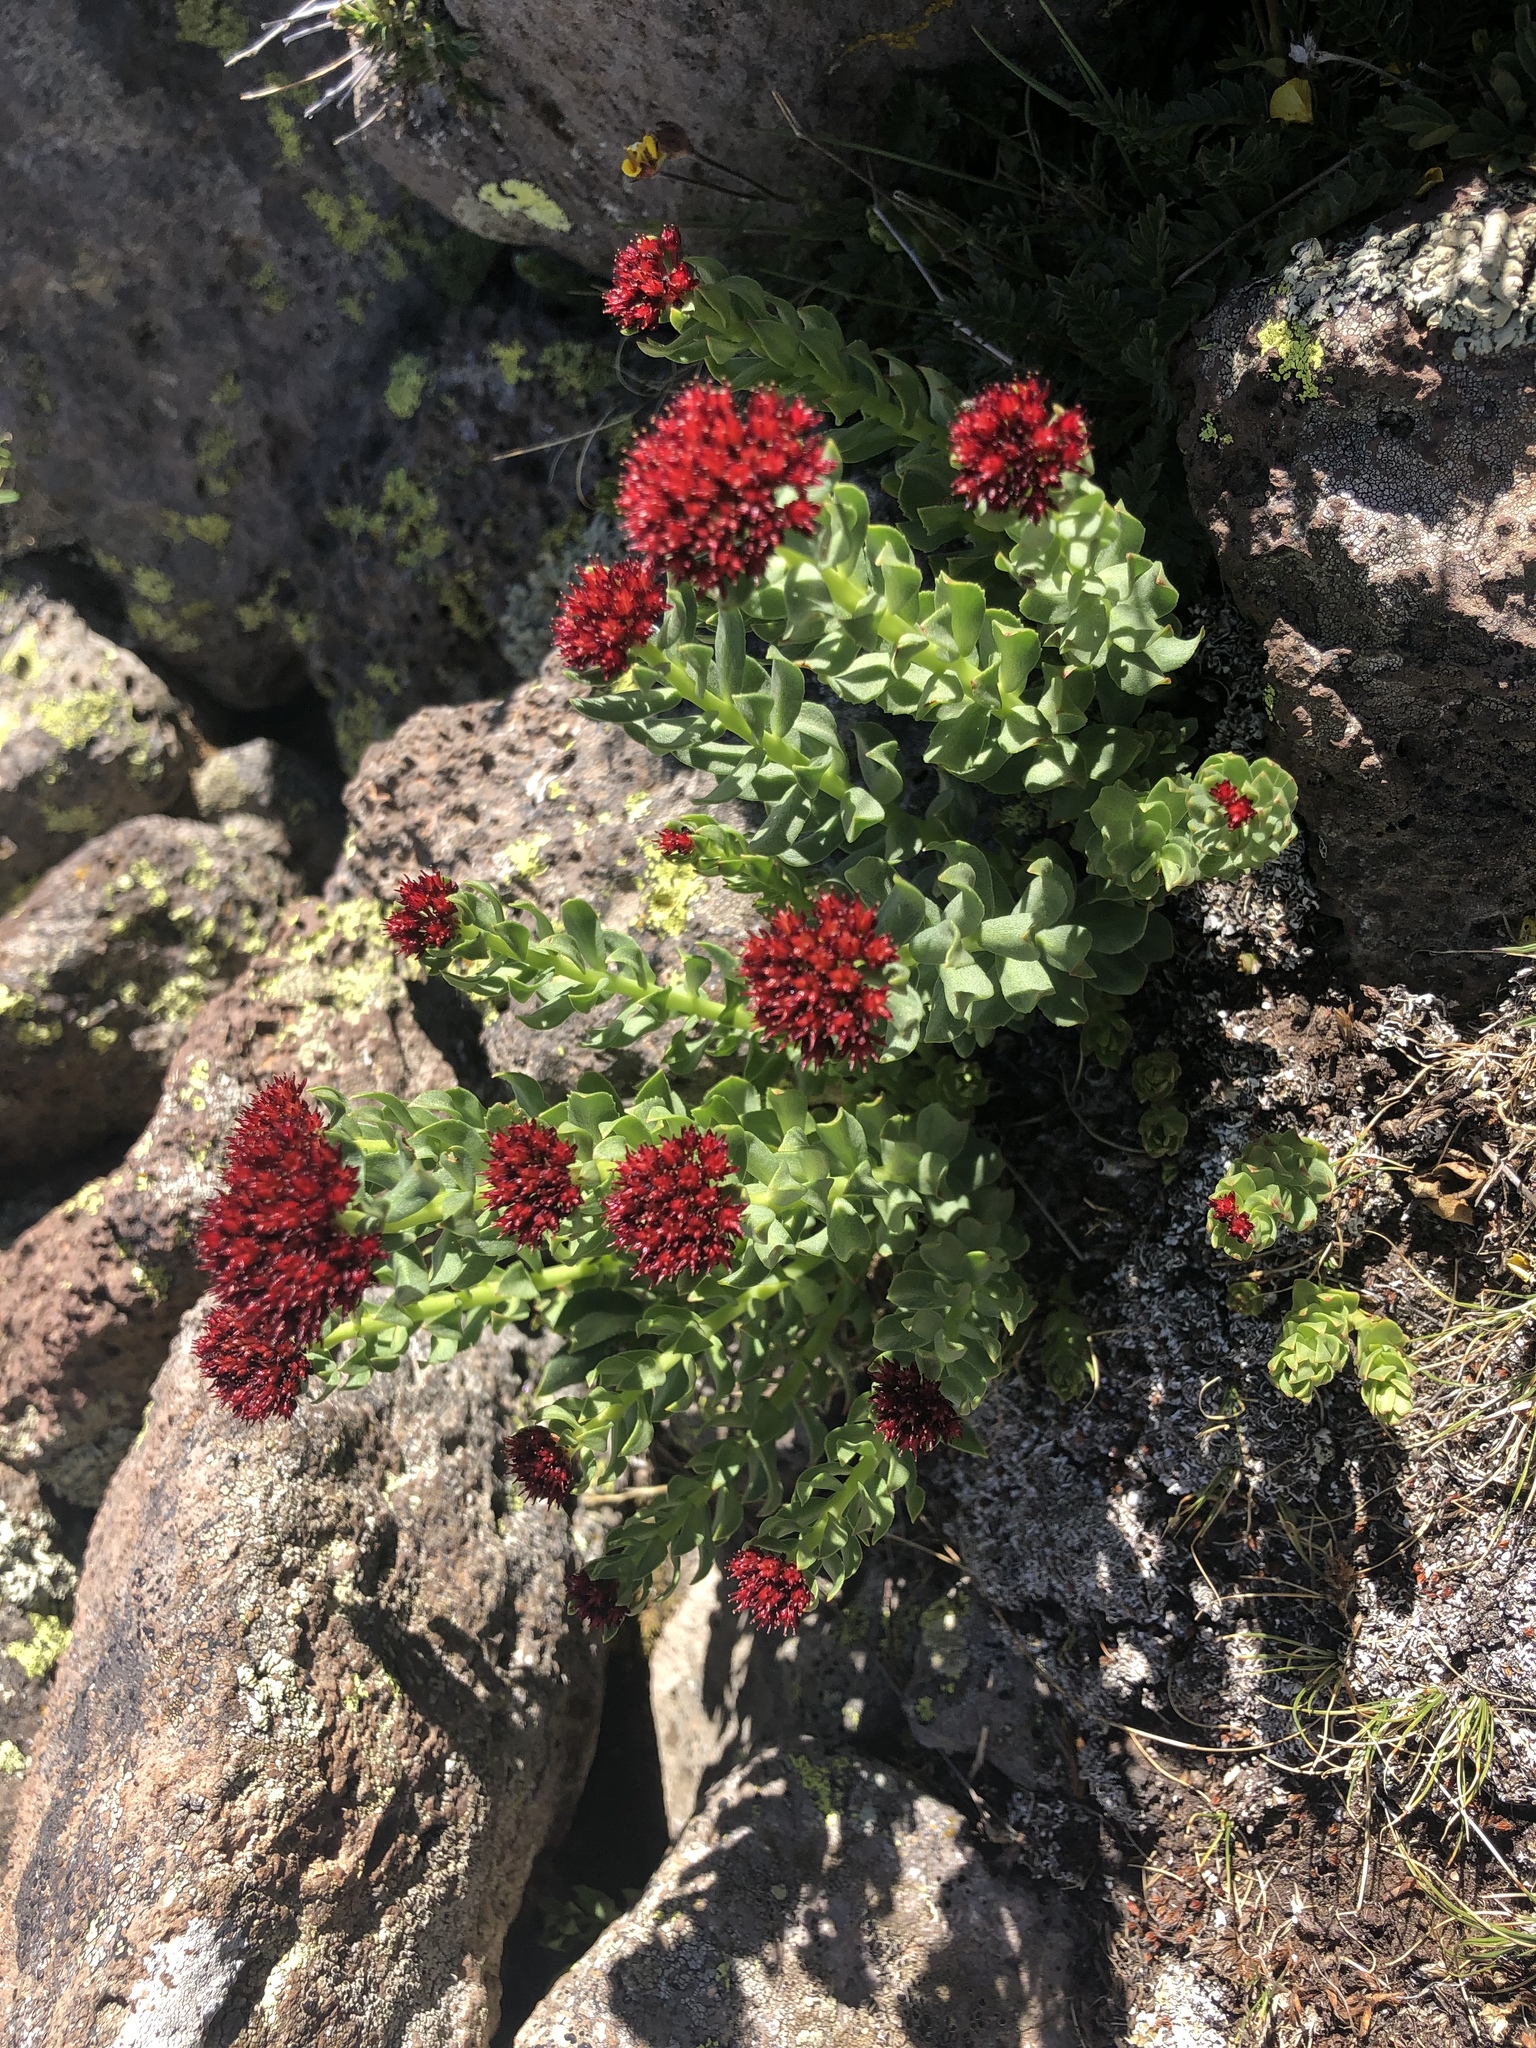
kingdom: Plantae
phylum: Tracheophyta
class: Magnoliopsida
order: Saxifragales
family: Crassulaceae
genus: Rhodiola
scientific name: Rhodiola integrifolia
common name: Western roseroot
